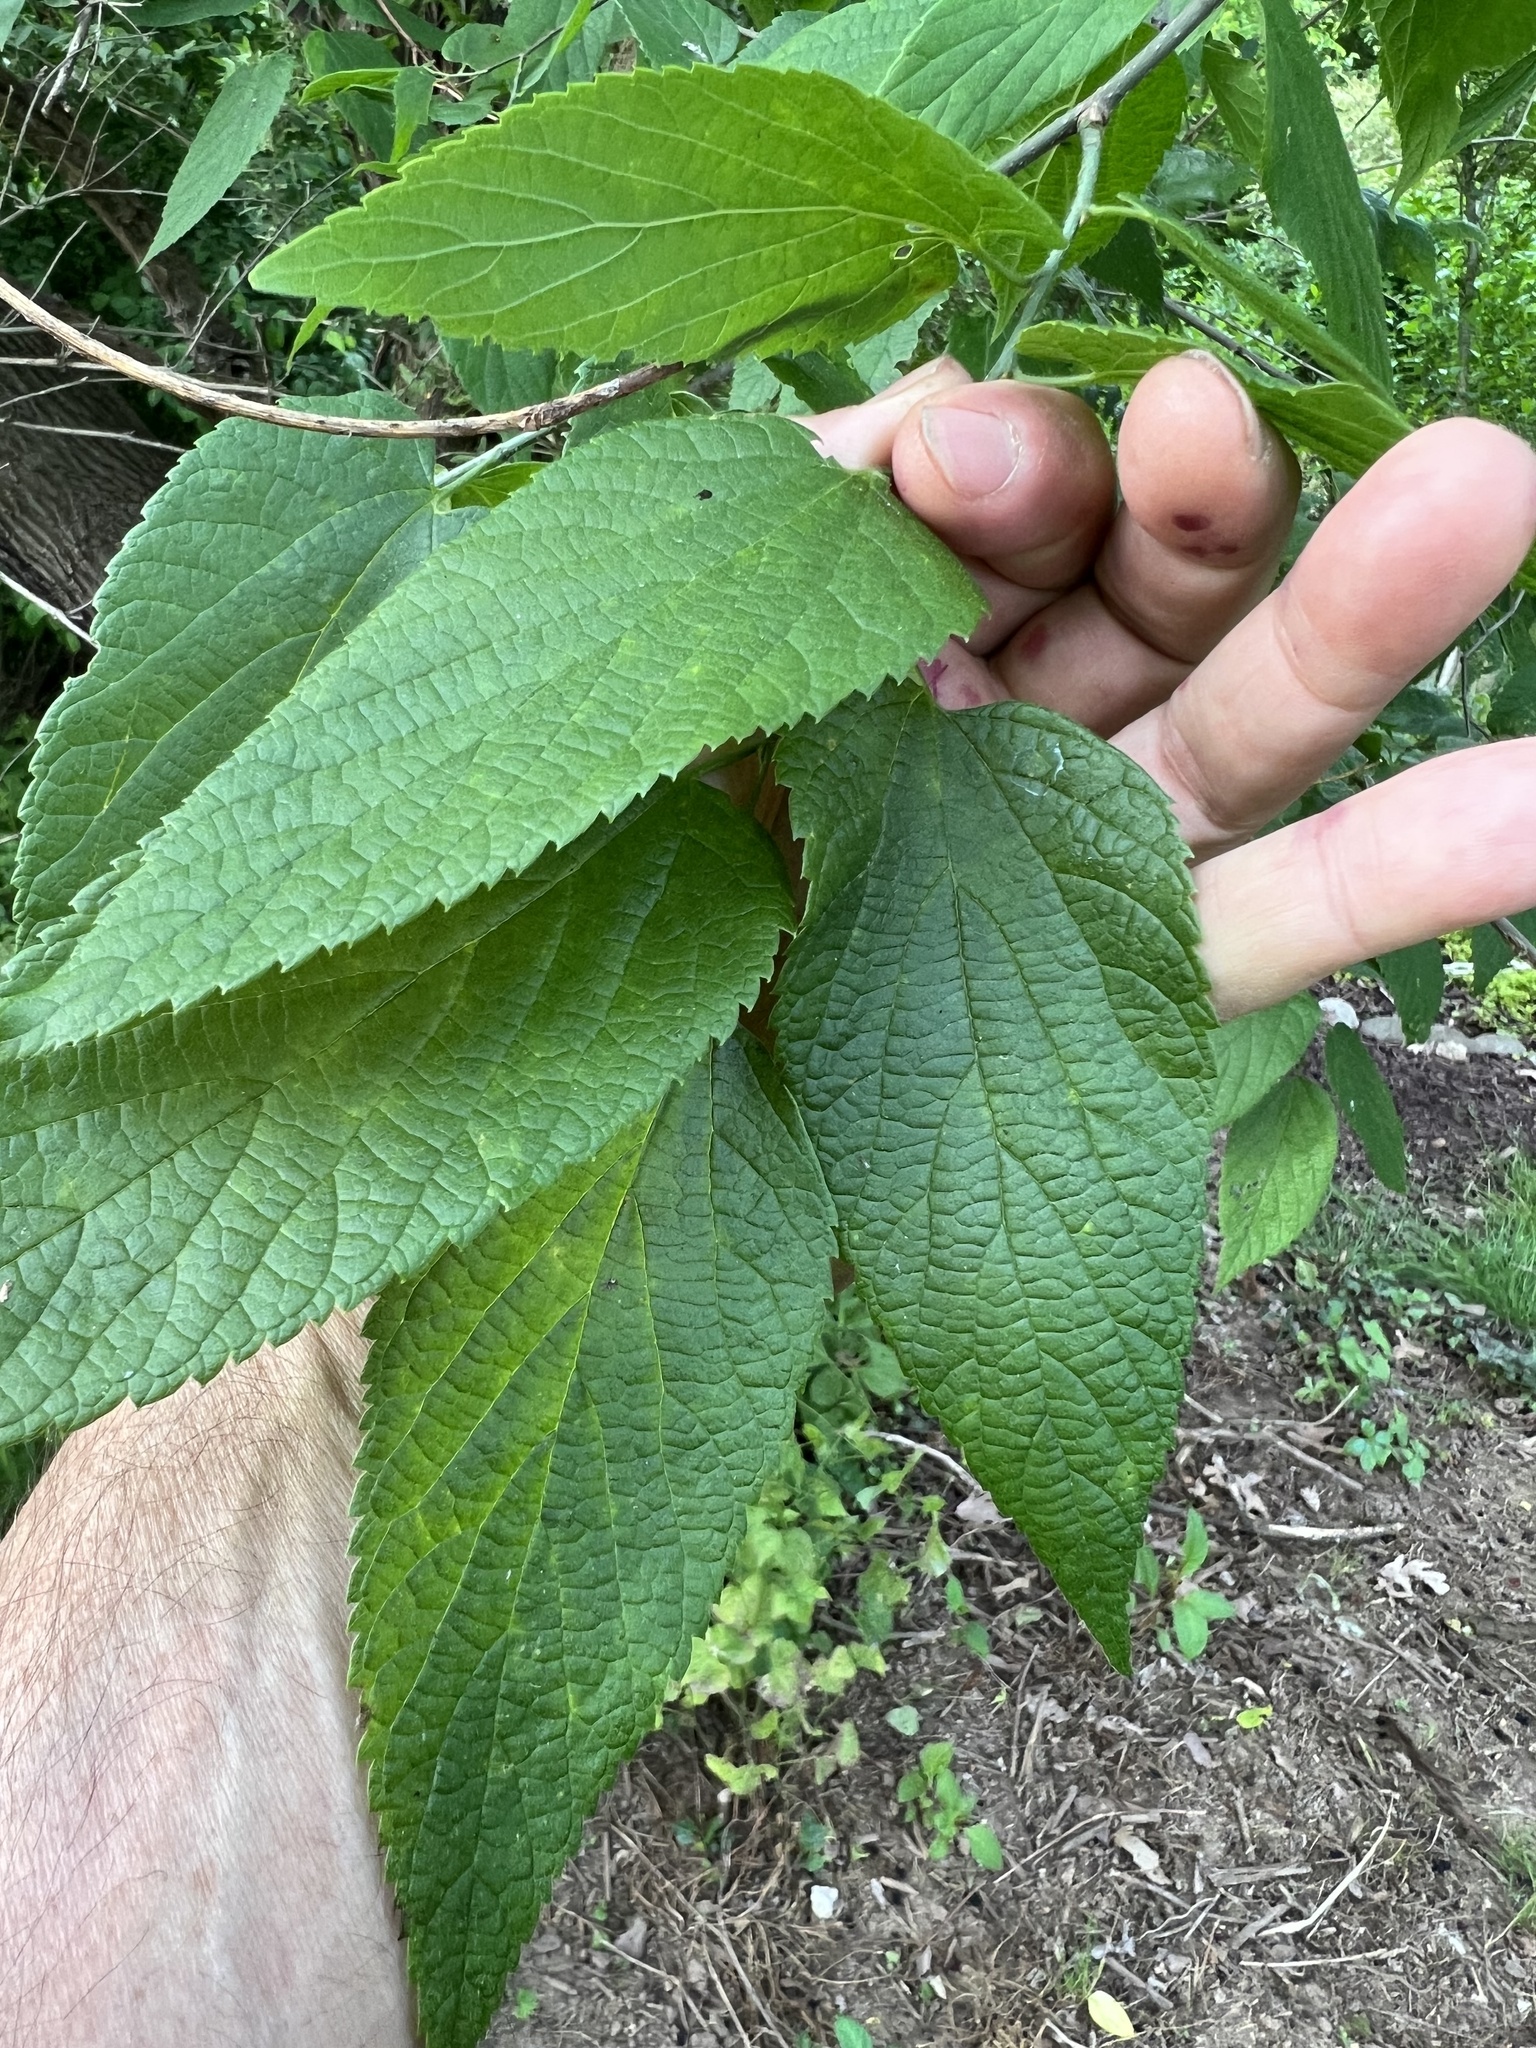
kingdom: Animalia
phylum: Arthropoda
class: Insecta
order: Diptera
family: Agromyzidae
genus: Agromyza
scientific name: Agromyza pallidiseta
